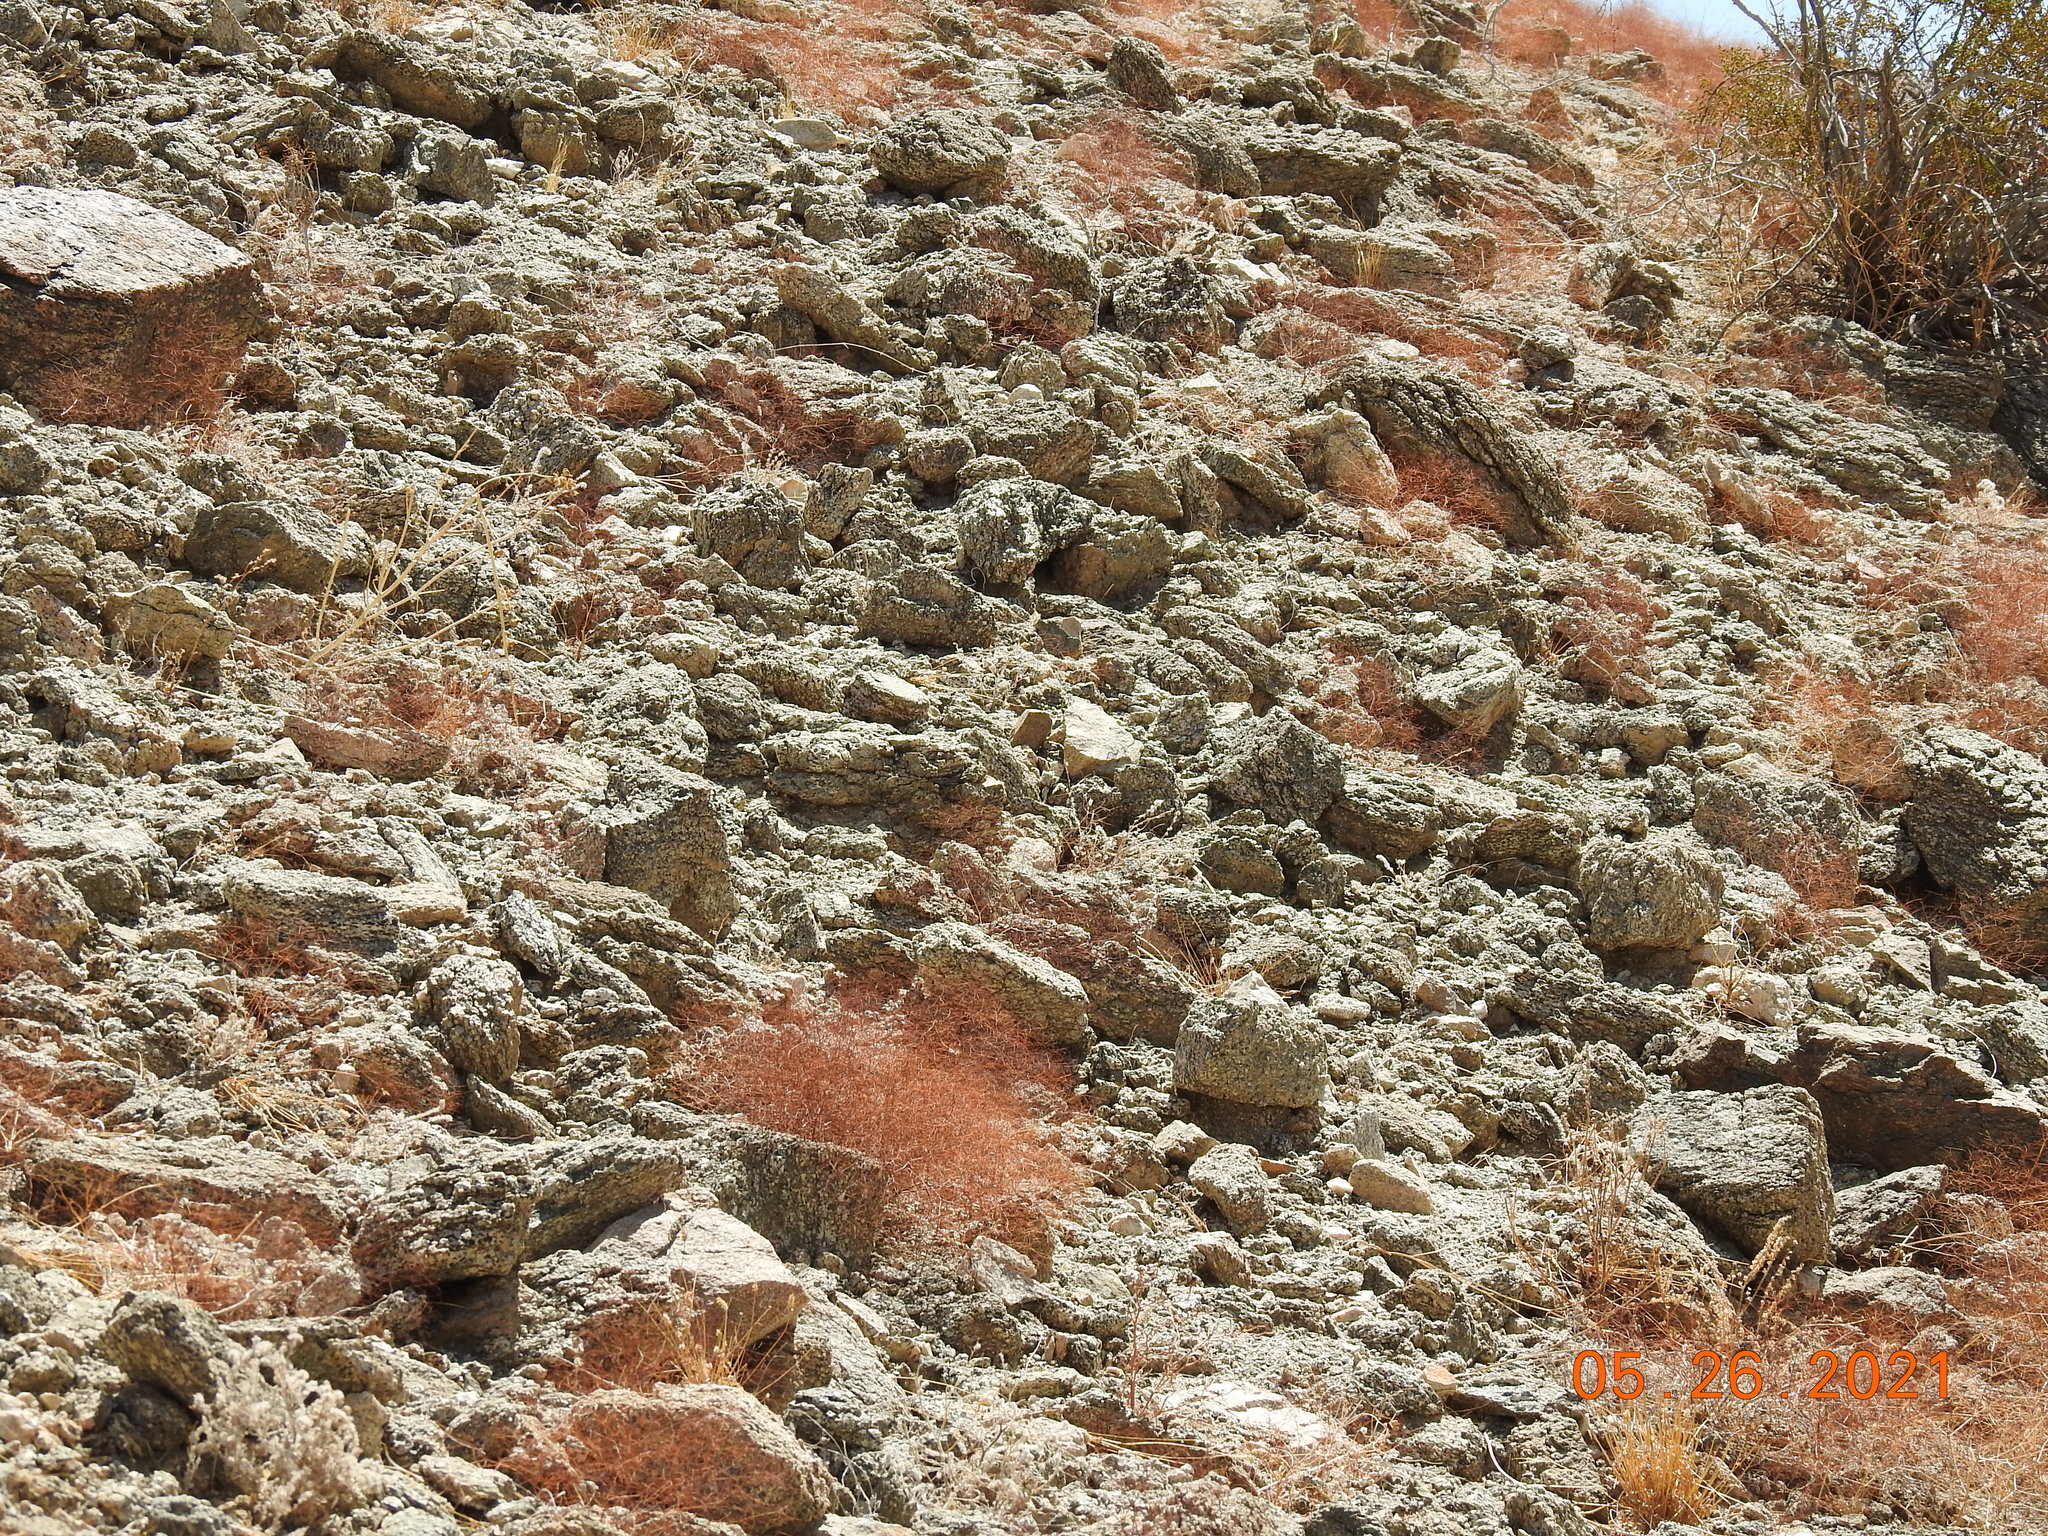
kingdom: Plantae
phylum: Tracheophyta
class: Magnoliopsida
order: Caryophyllales
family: Polygonaceae
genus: Eriogonum
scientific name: Eriogonum thomasii
